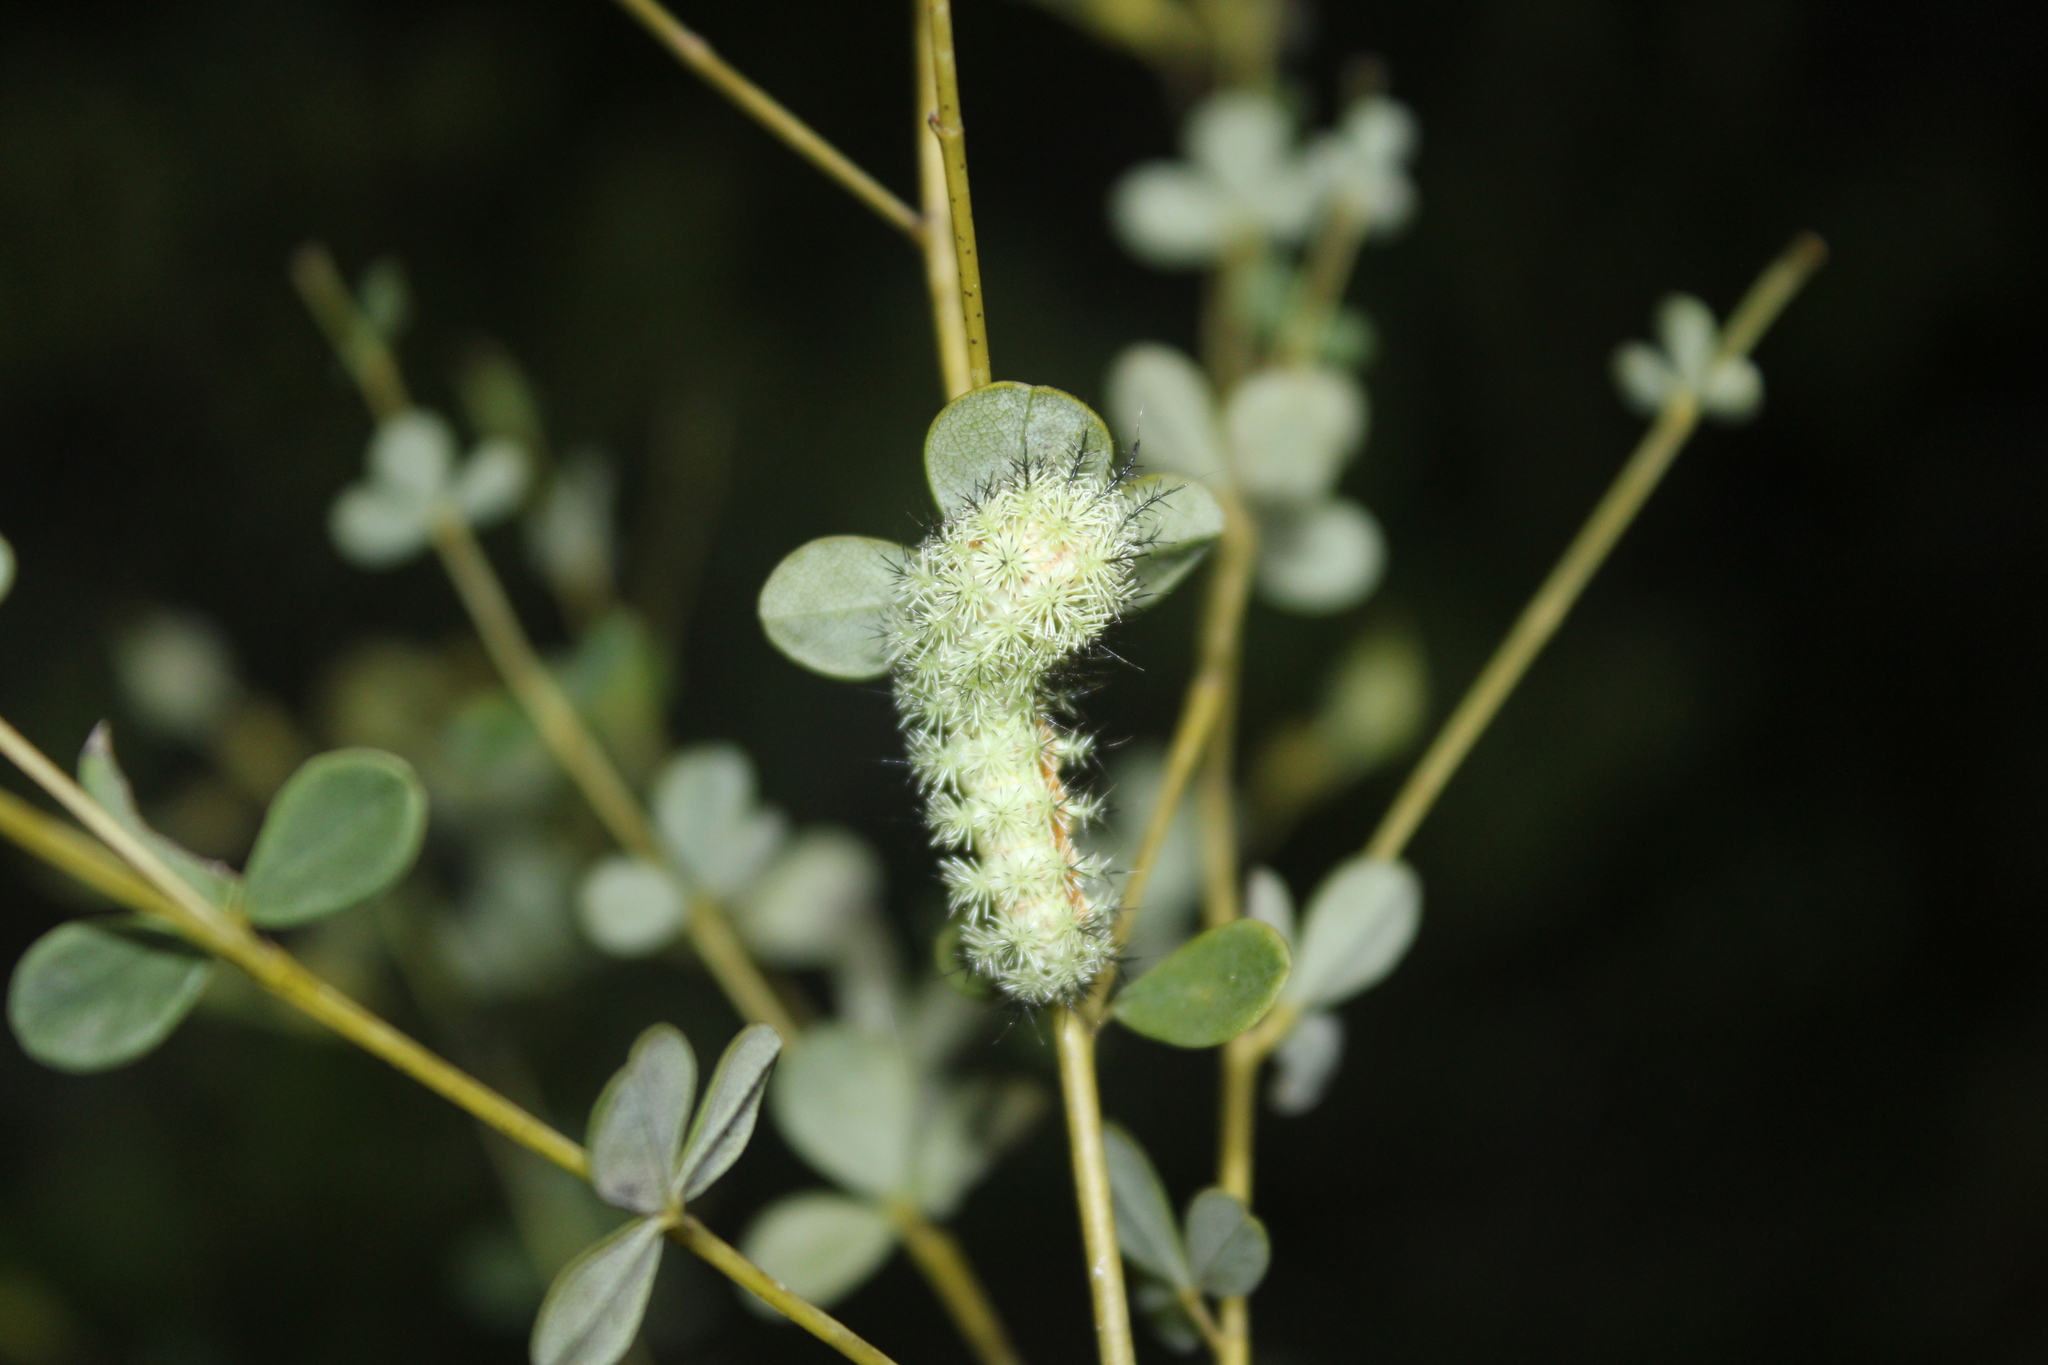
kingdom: Animalia
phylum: Arthropoda
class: Insecta
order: Lepidoptera
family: Saturniidae
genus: Automeris
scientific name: Automeris io
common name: Io moth
